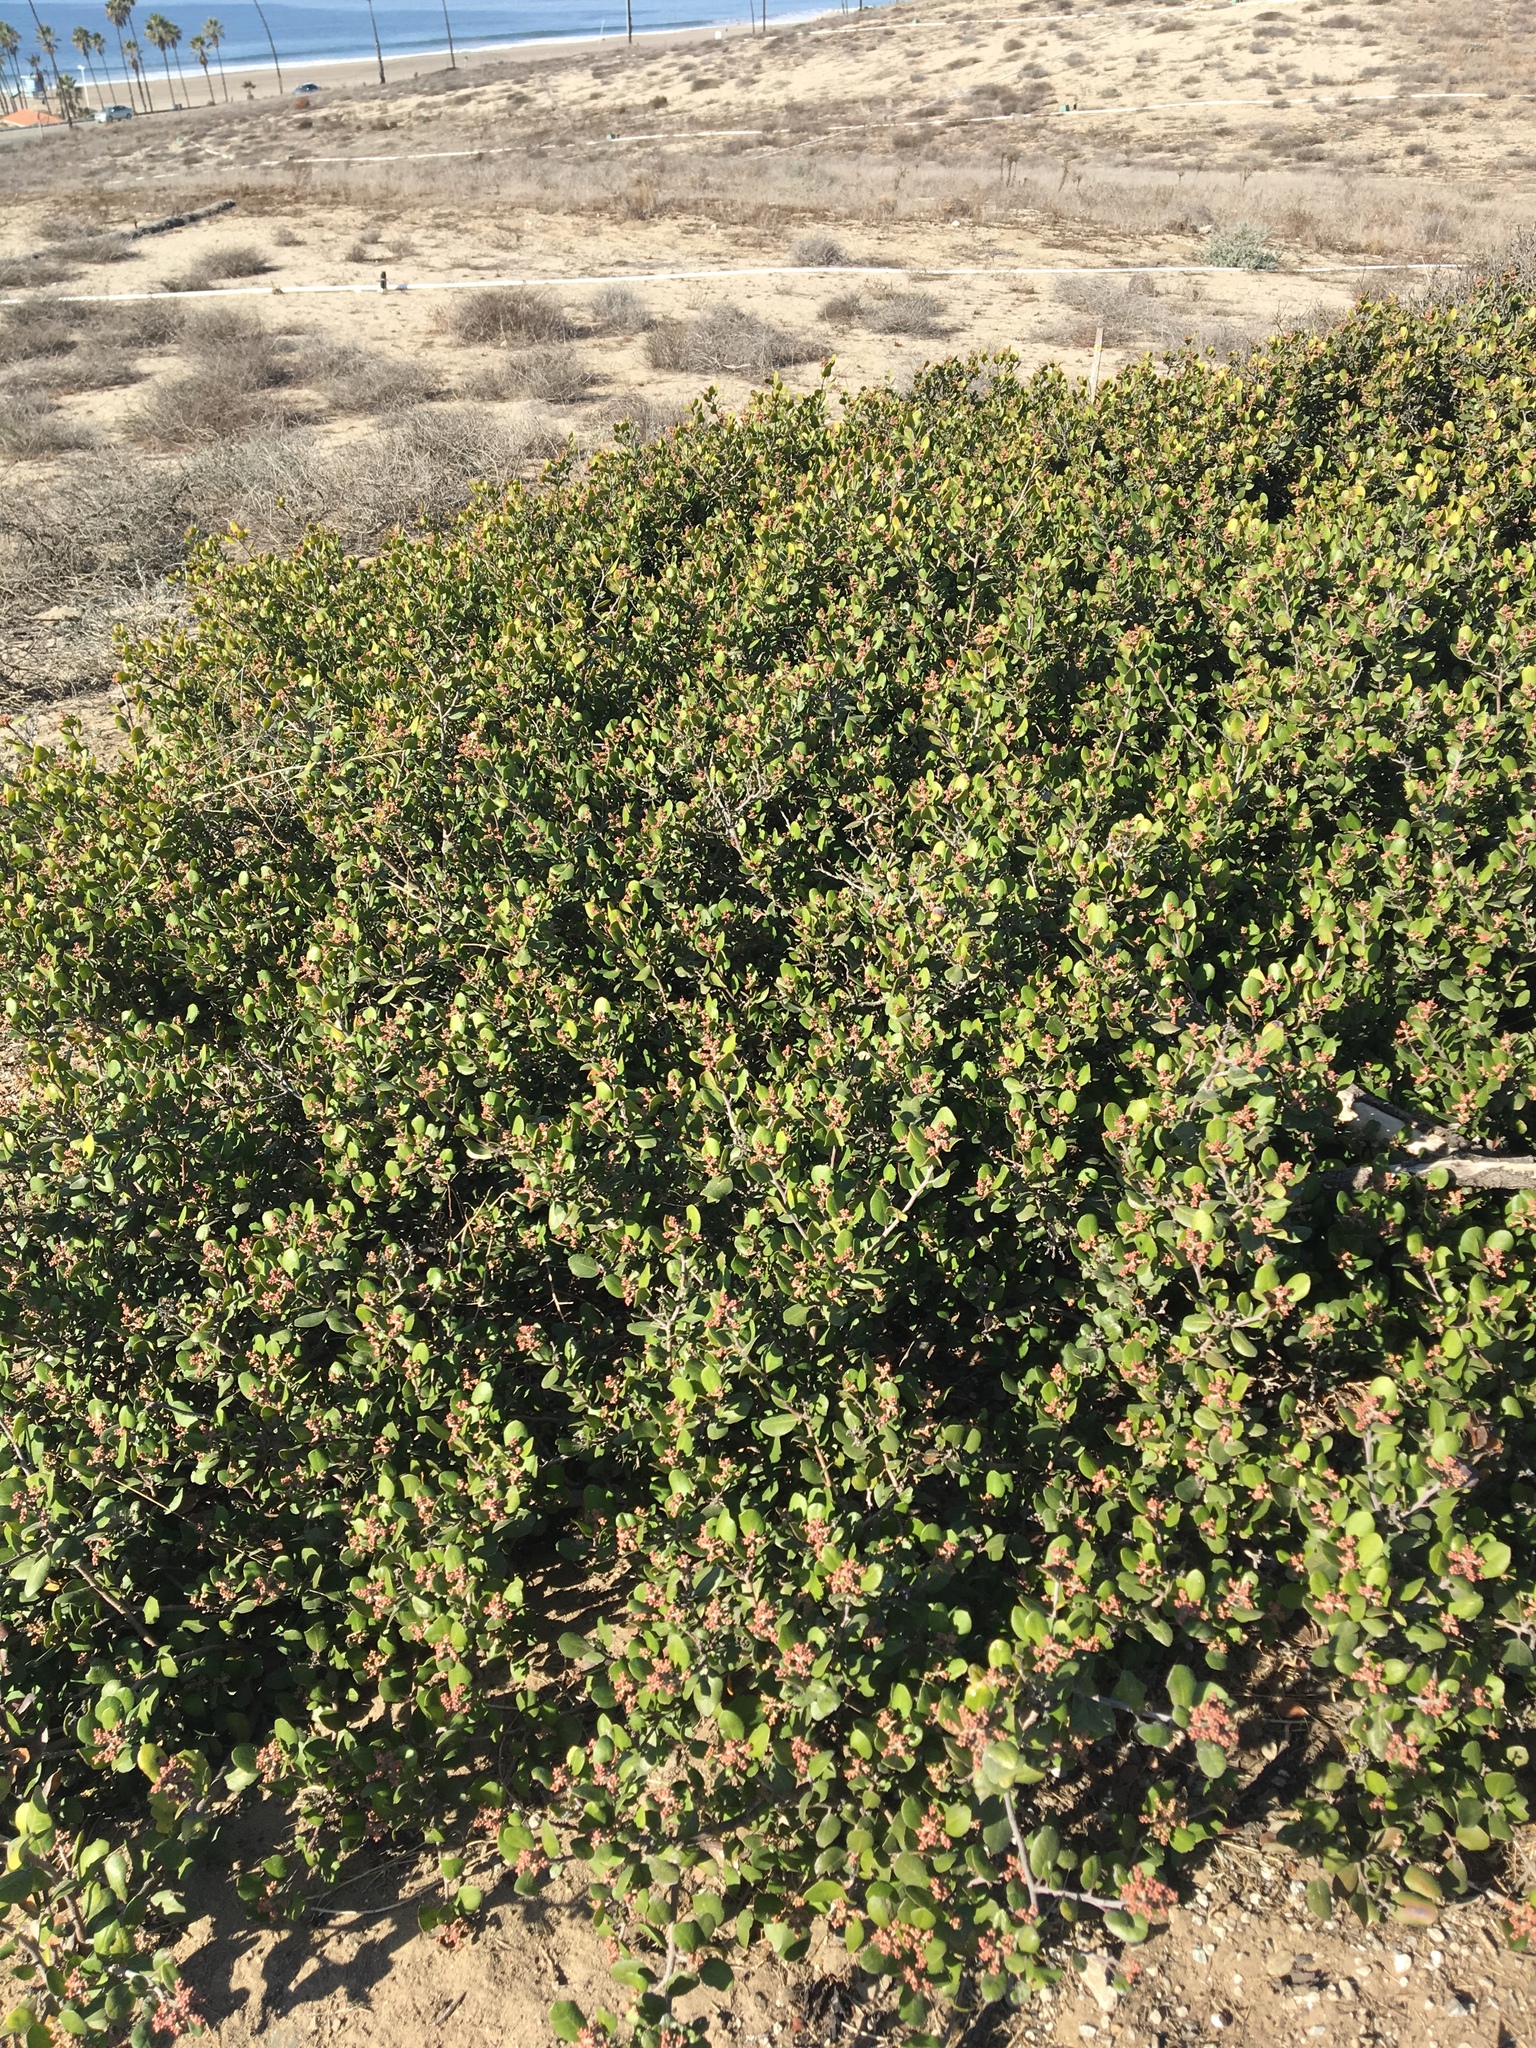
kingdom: Plantae
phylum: Tracheophyta
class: Magnoliopsida
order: Sapindales
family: Anacardiaceae
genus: Rhus
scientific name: Rhus integrifolia
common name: Lemonade sumac
